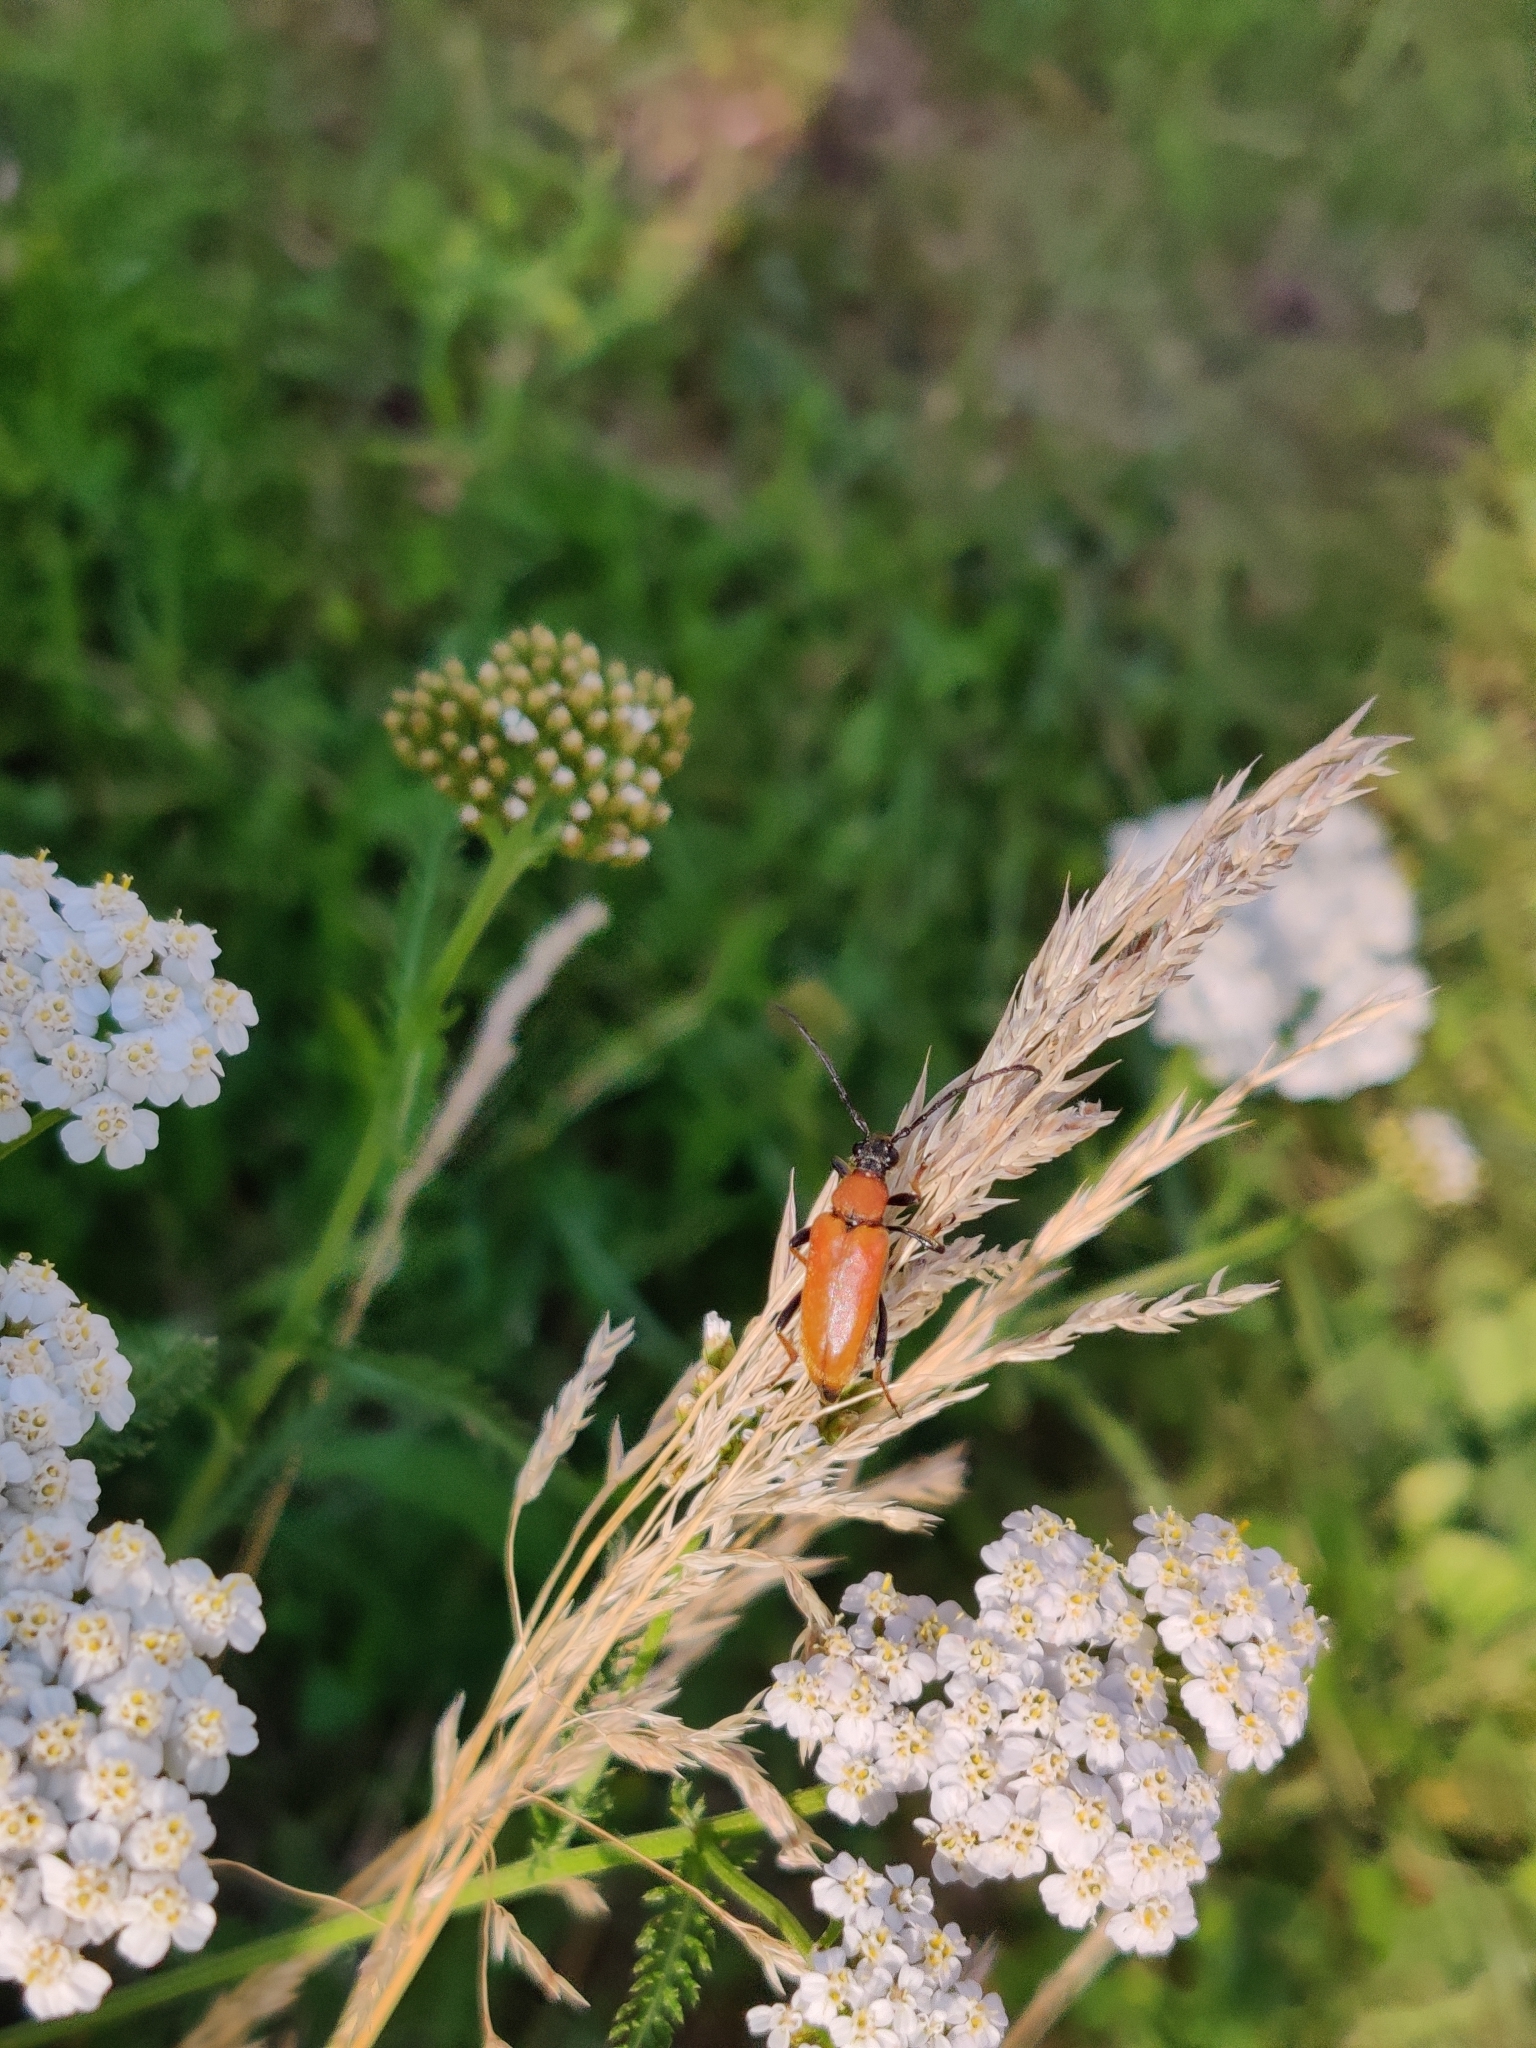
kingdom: Animalia
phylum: Arthropoda
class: Insecta
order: Coleoptera
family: Cerambycidae
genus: Stictoleptura
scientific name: Stictoleptura rubra
